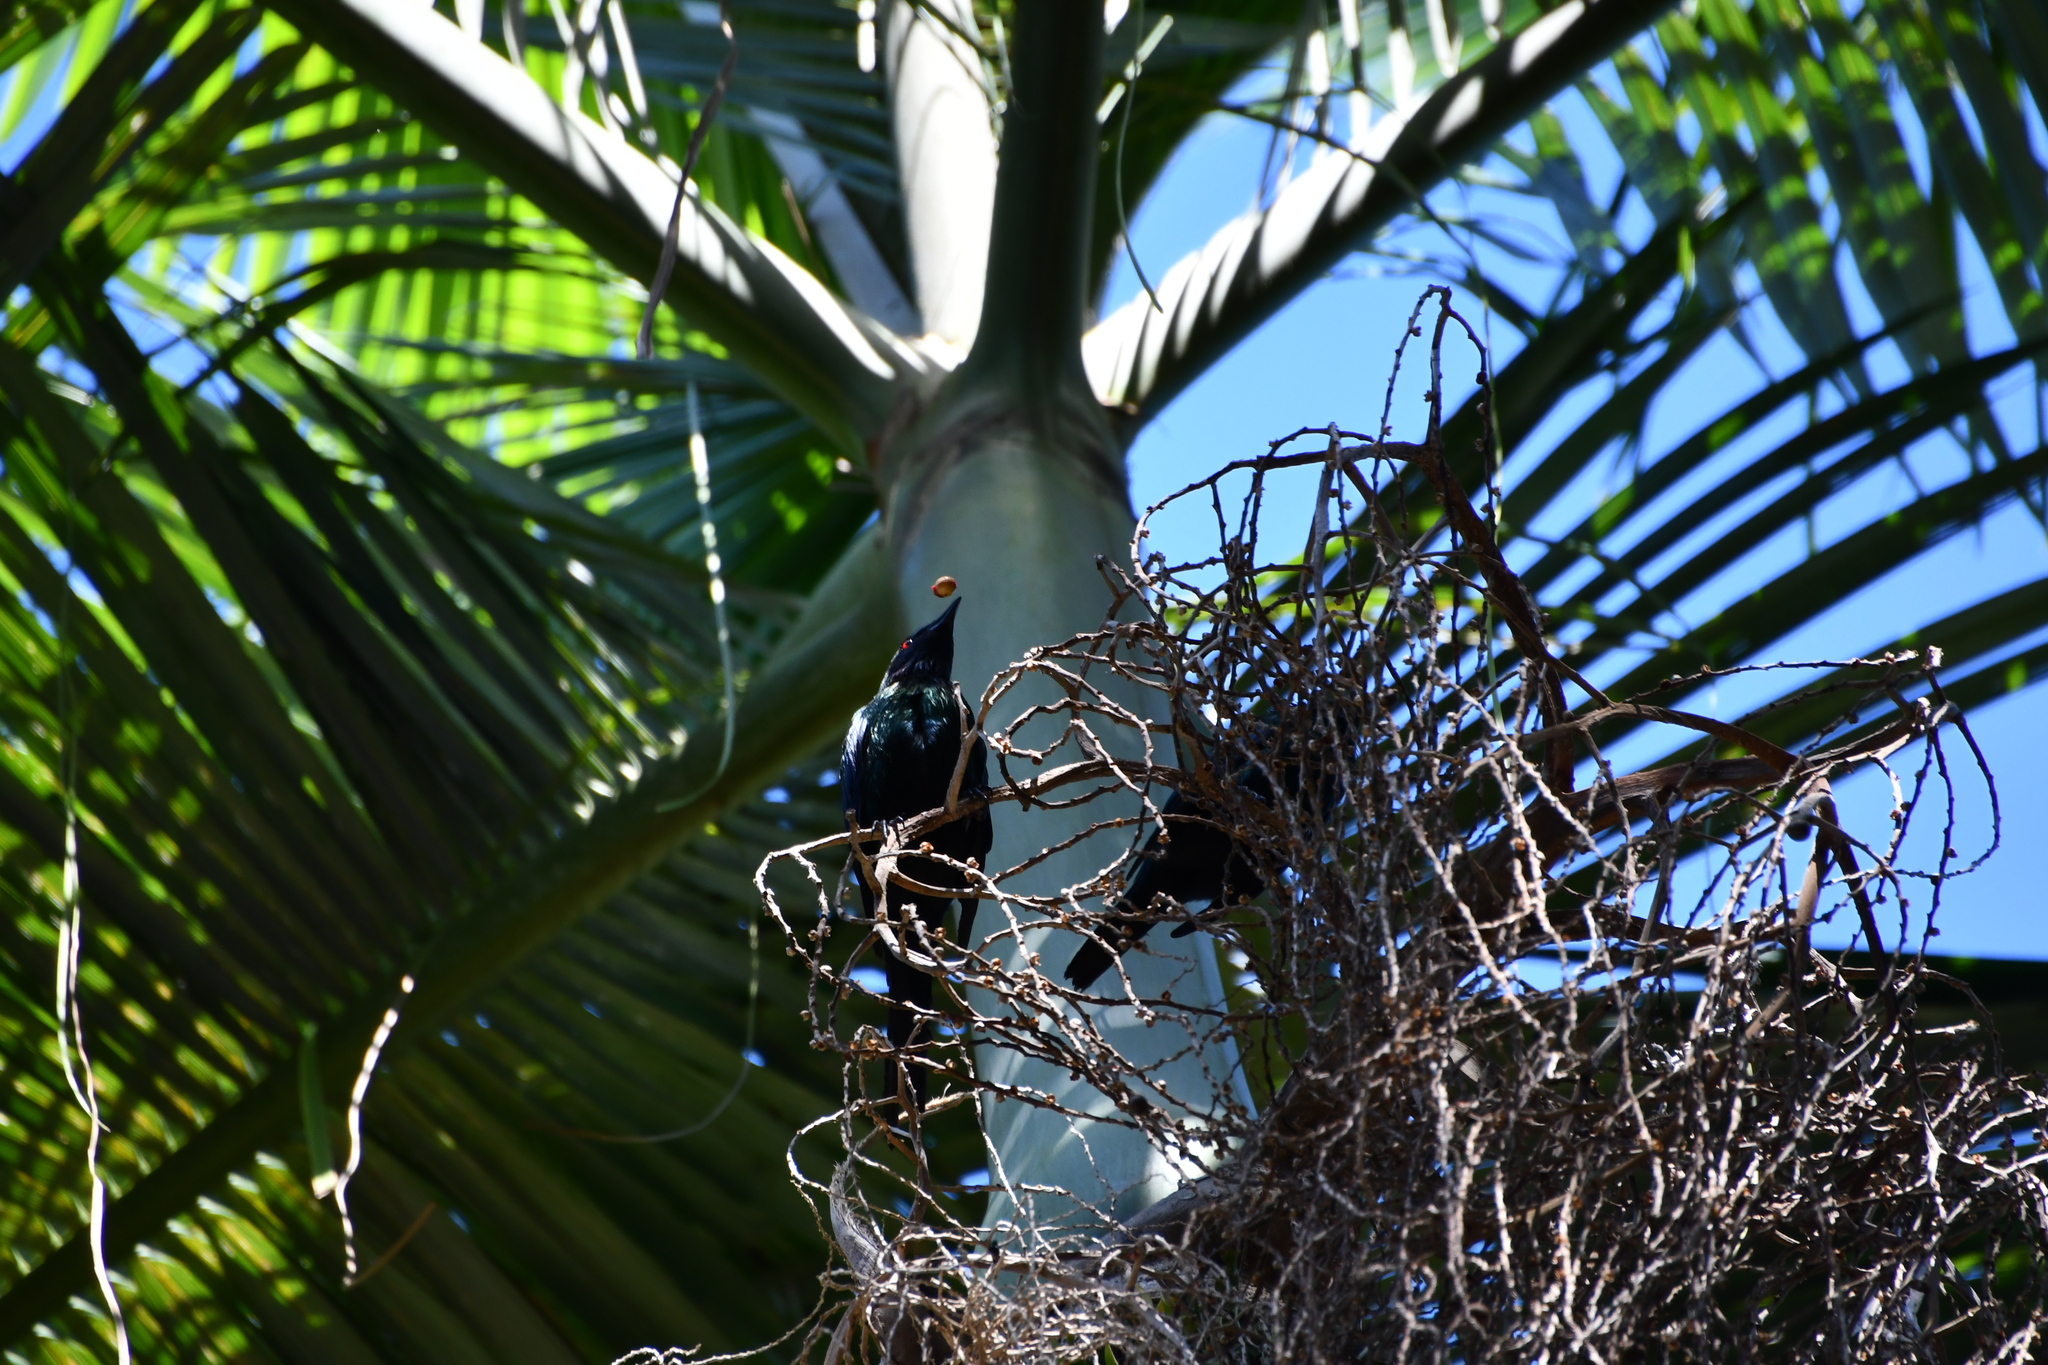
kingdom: Animalia
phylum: Chordata
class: Aves
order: Passeriformes
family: Sturnidae
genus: Aplonis
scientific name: Aplonis metallica
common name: Metallic starling
